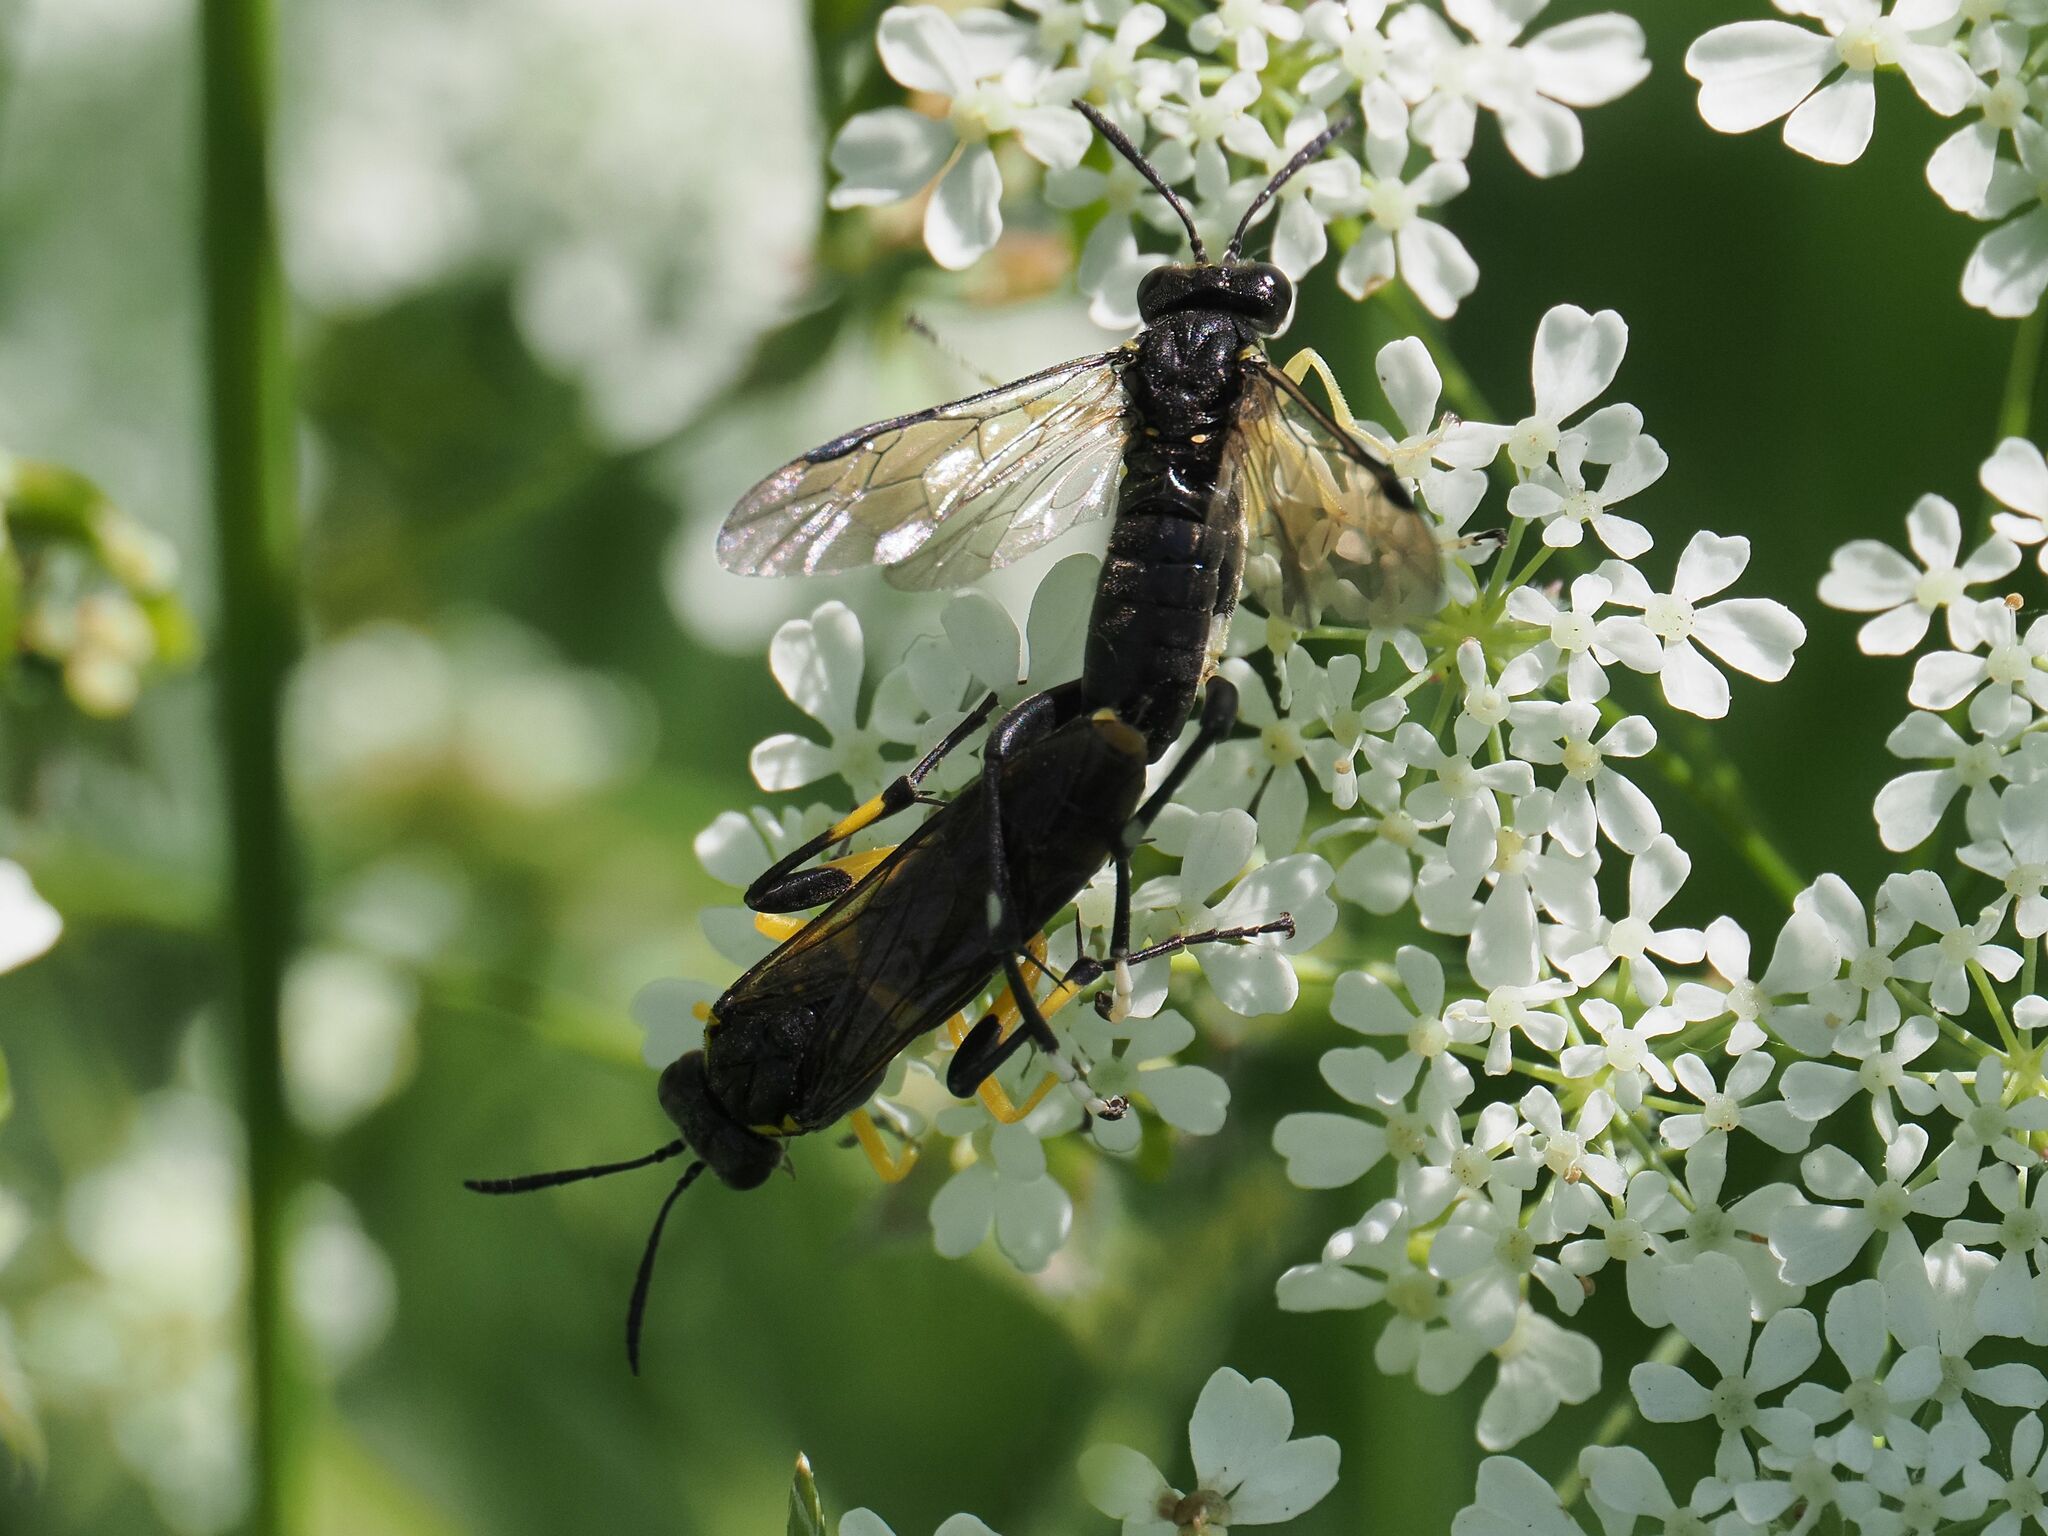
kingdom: Animalia
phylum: Arthropoda
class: Insecta
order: Hymenoptera
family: Tenthredinidae
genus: Macrophya
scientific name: Macrophya montana
